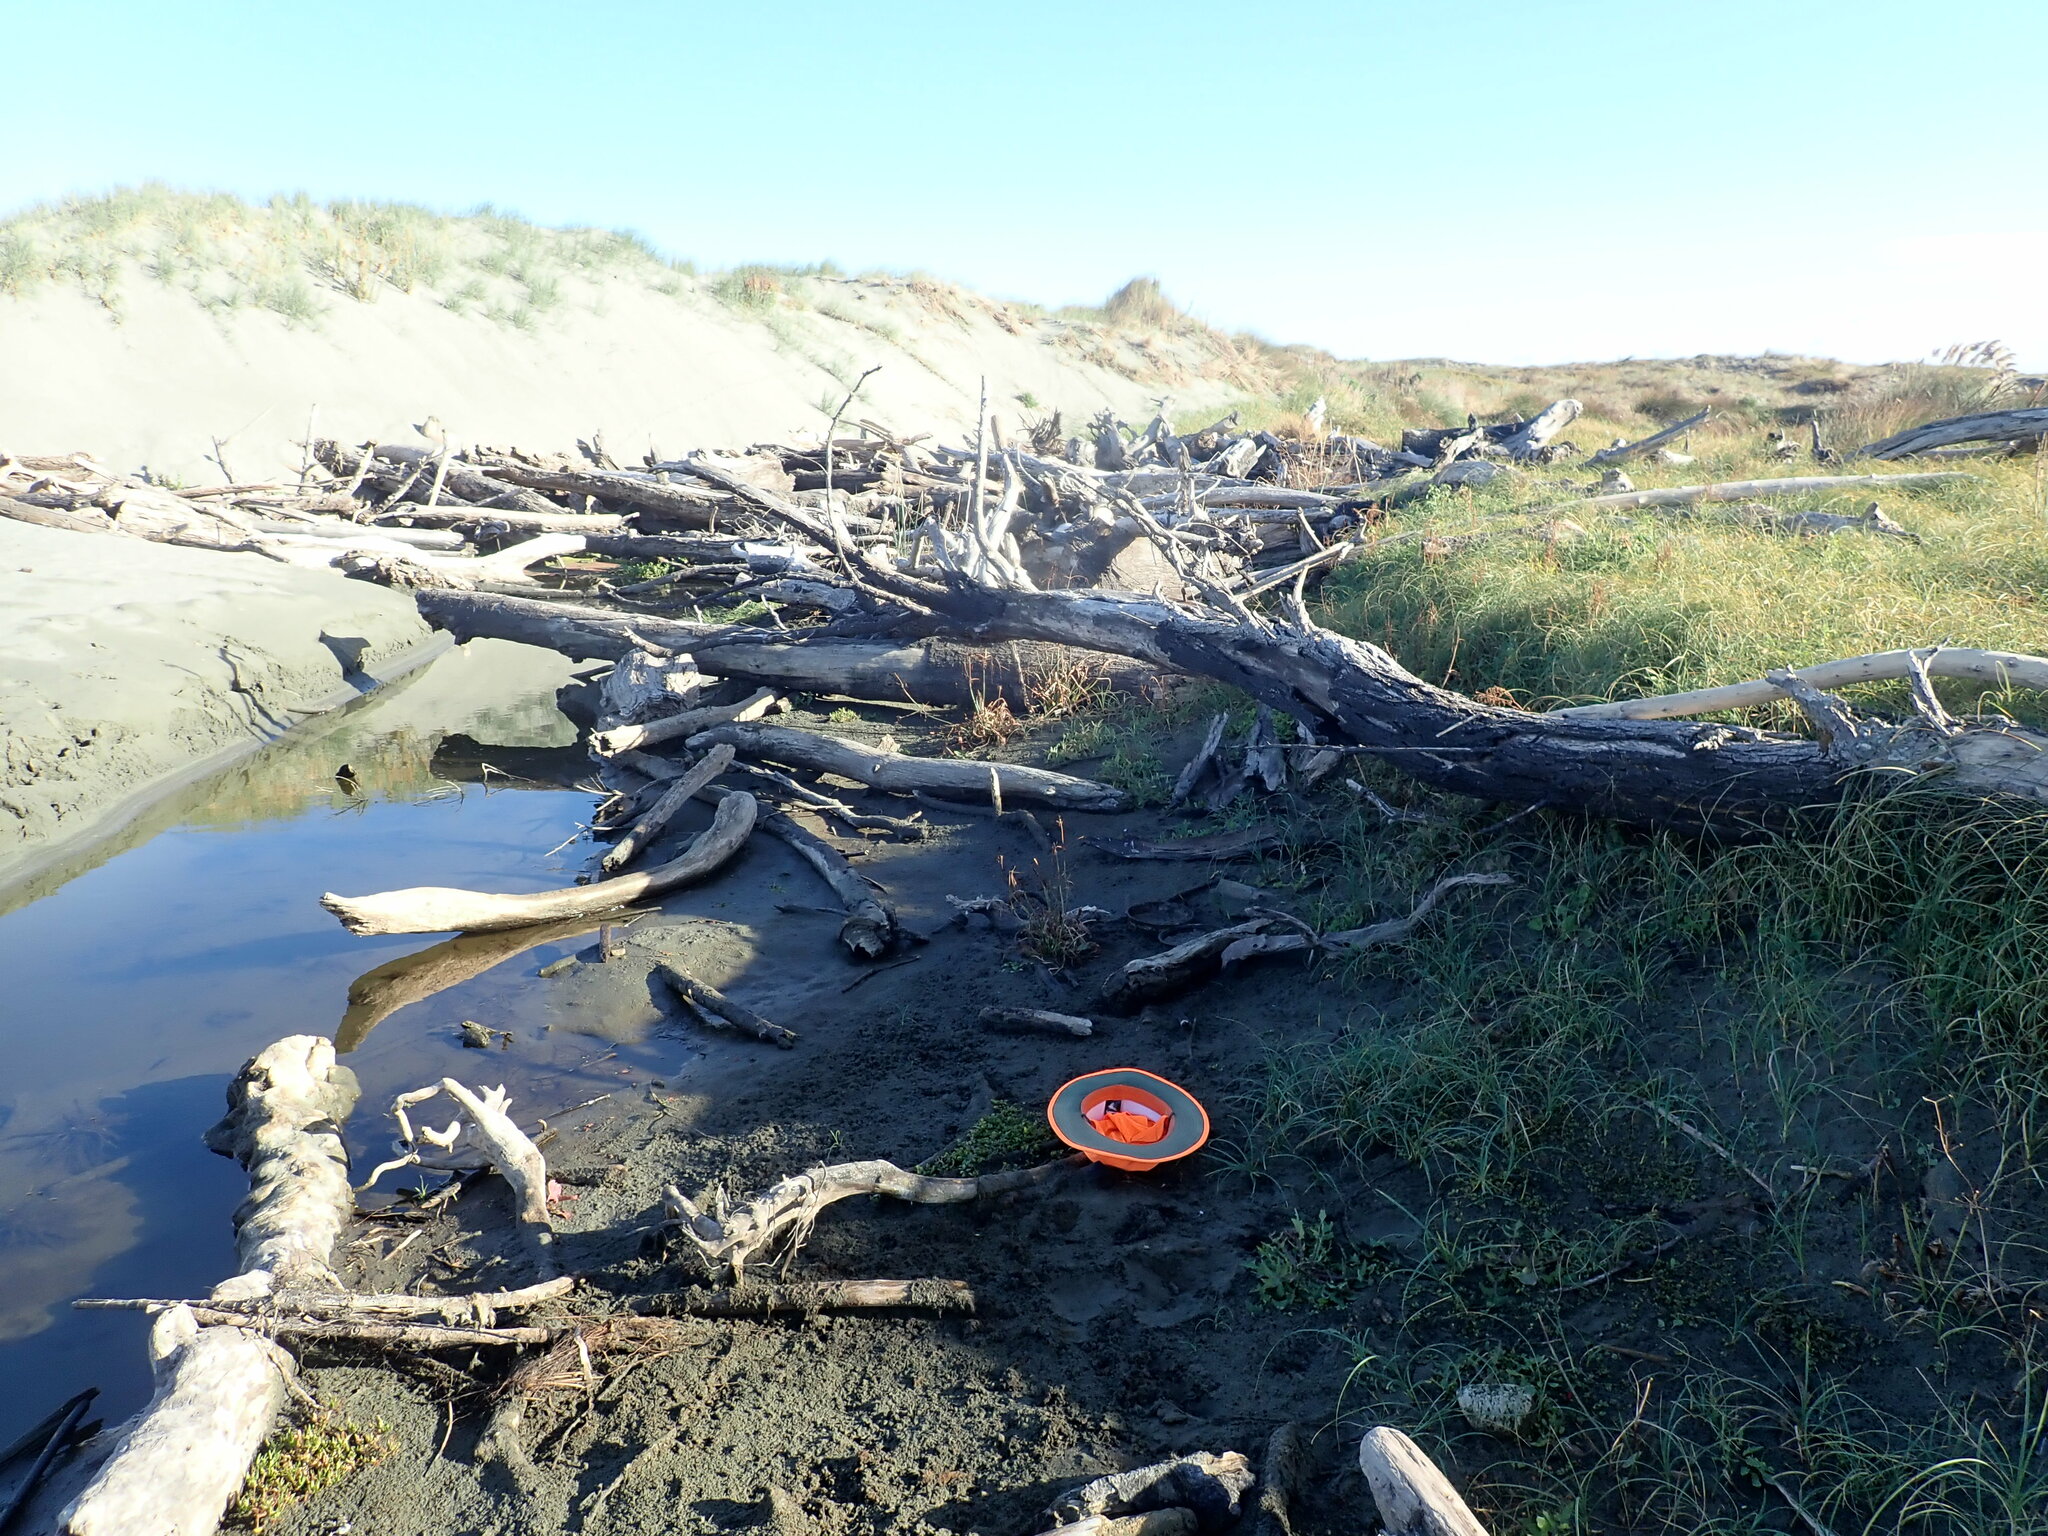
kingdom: Plantae
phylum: Tracheophyta
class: Magnoliopsida
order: Apiales
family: Apiaceae
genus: Helosciadium
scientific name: Helosciadium nodiflorum
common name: Fool's-watercress
